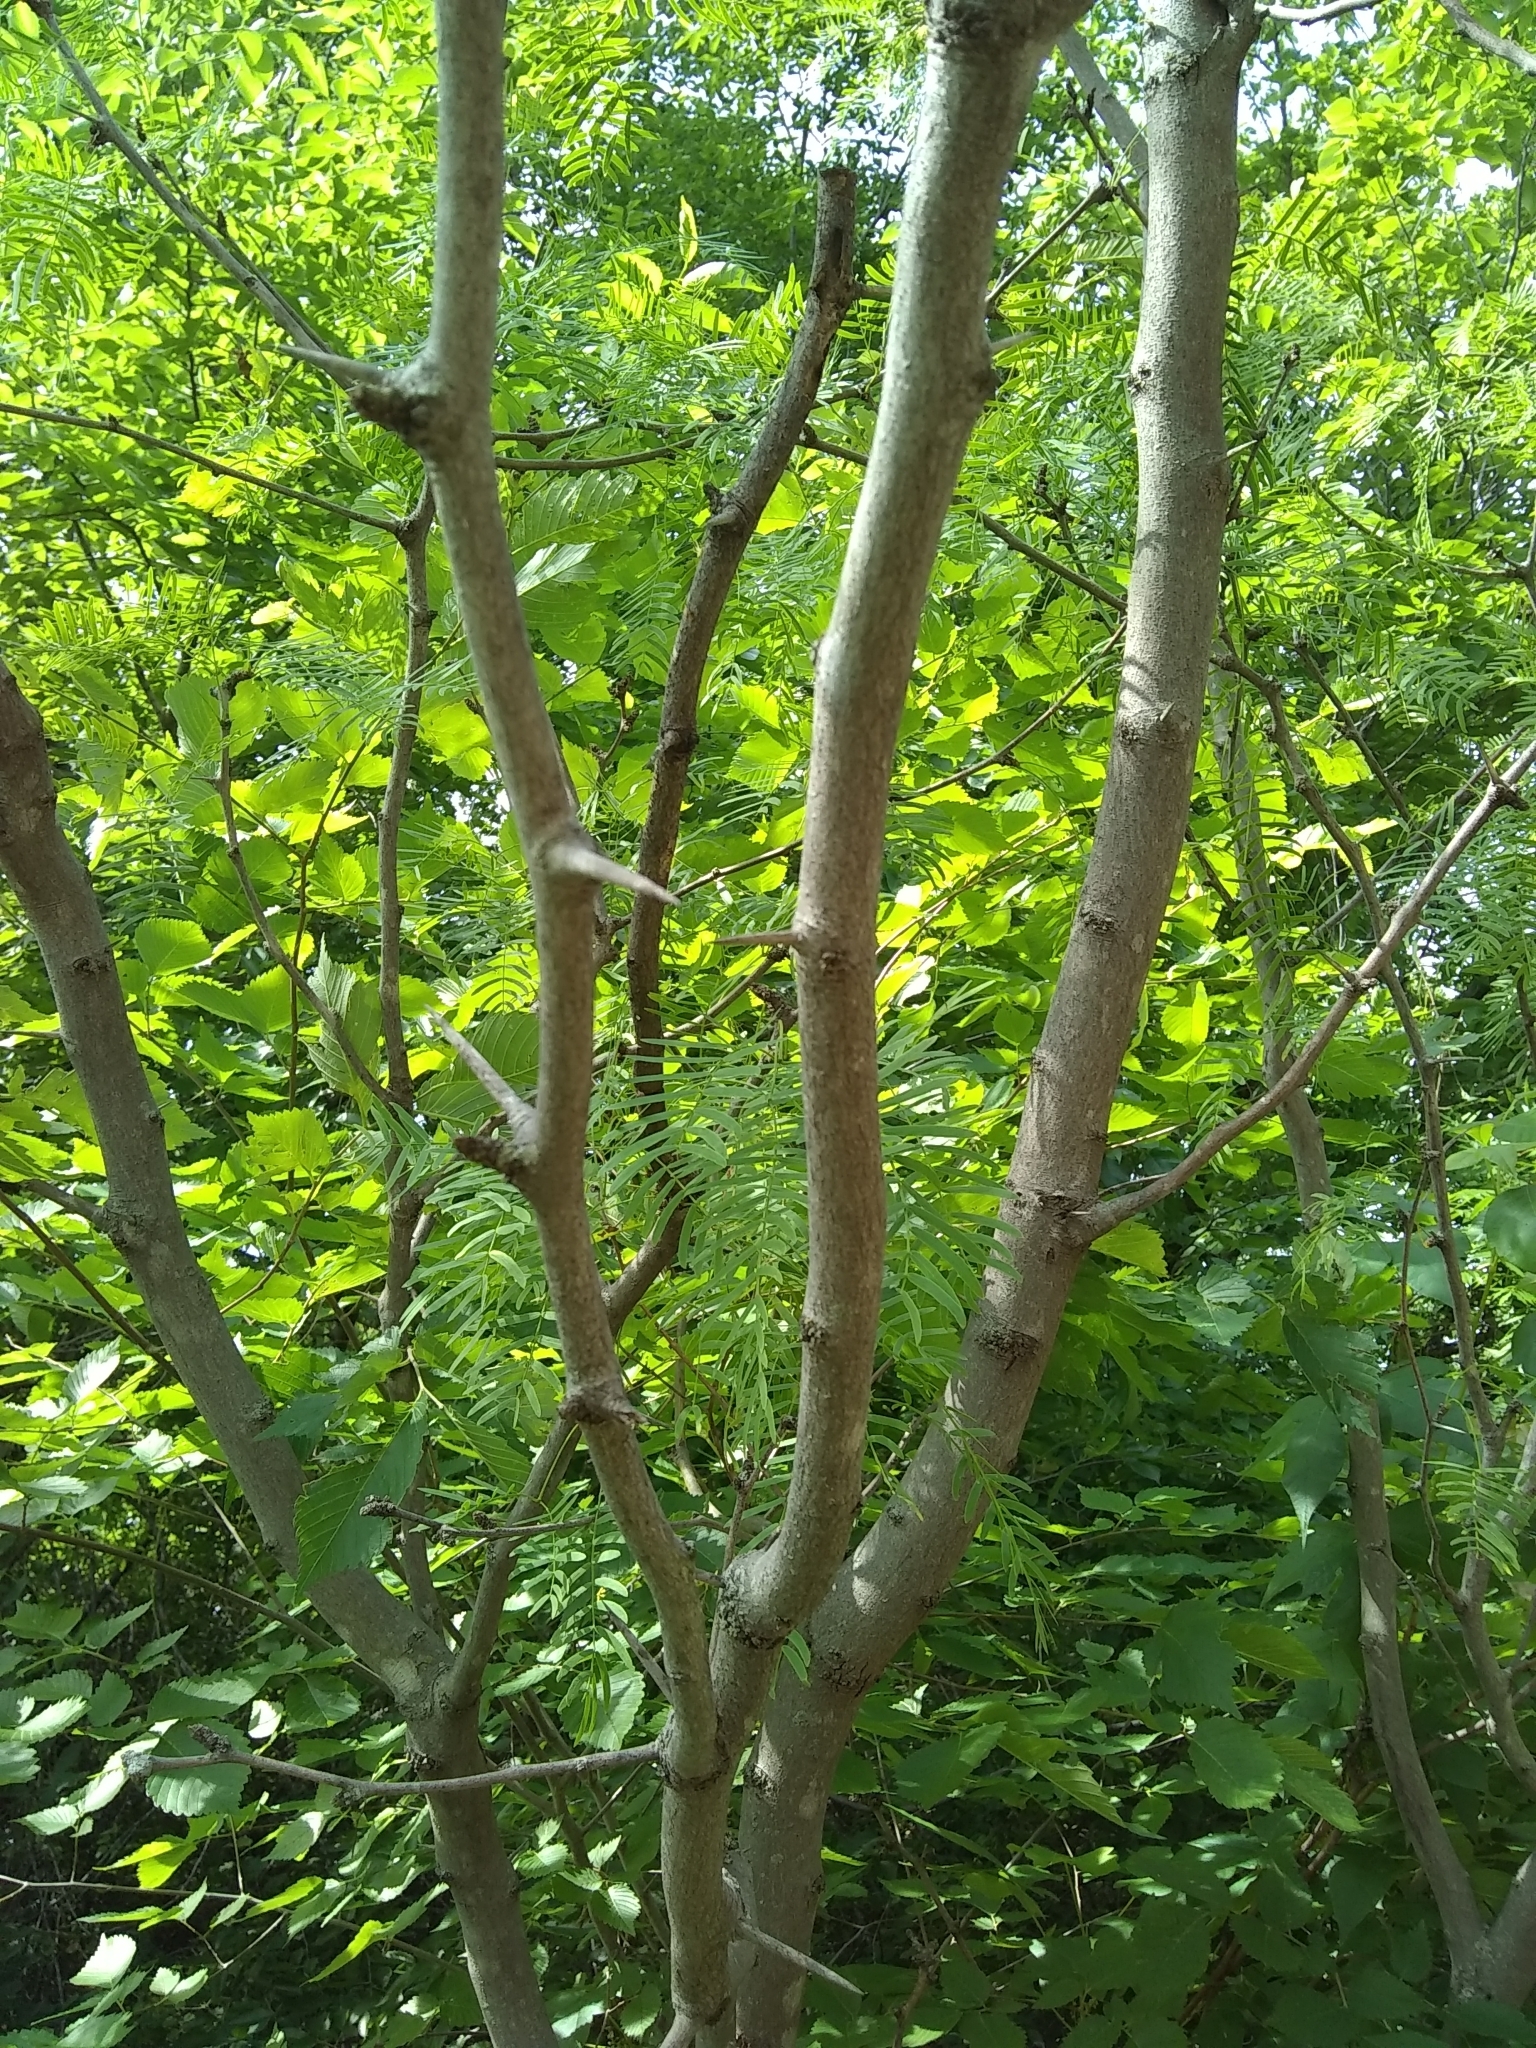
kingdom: Plantae
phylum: Tracheophyta
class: Magnoliopsida
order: Fabales
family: Fabaceae
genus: Prosopis
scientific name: Prosopis glandulosa
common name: Honey mesquite
